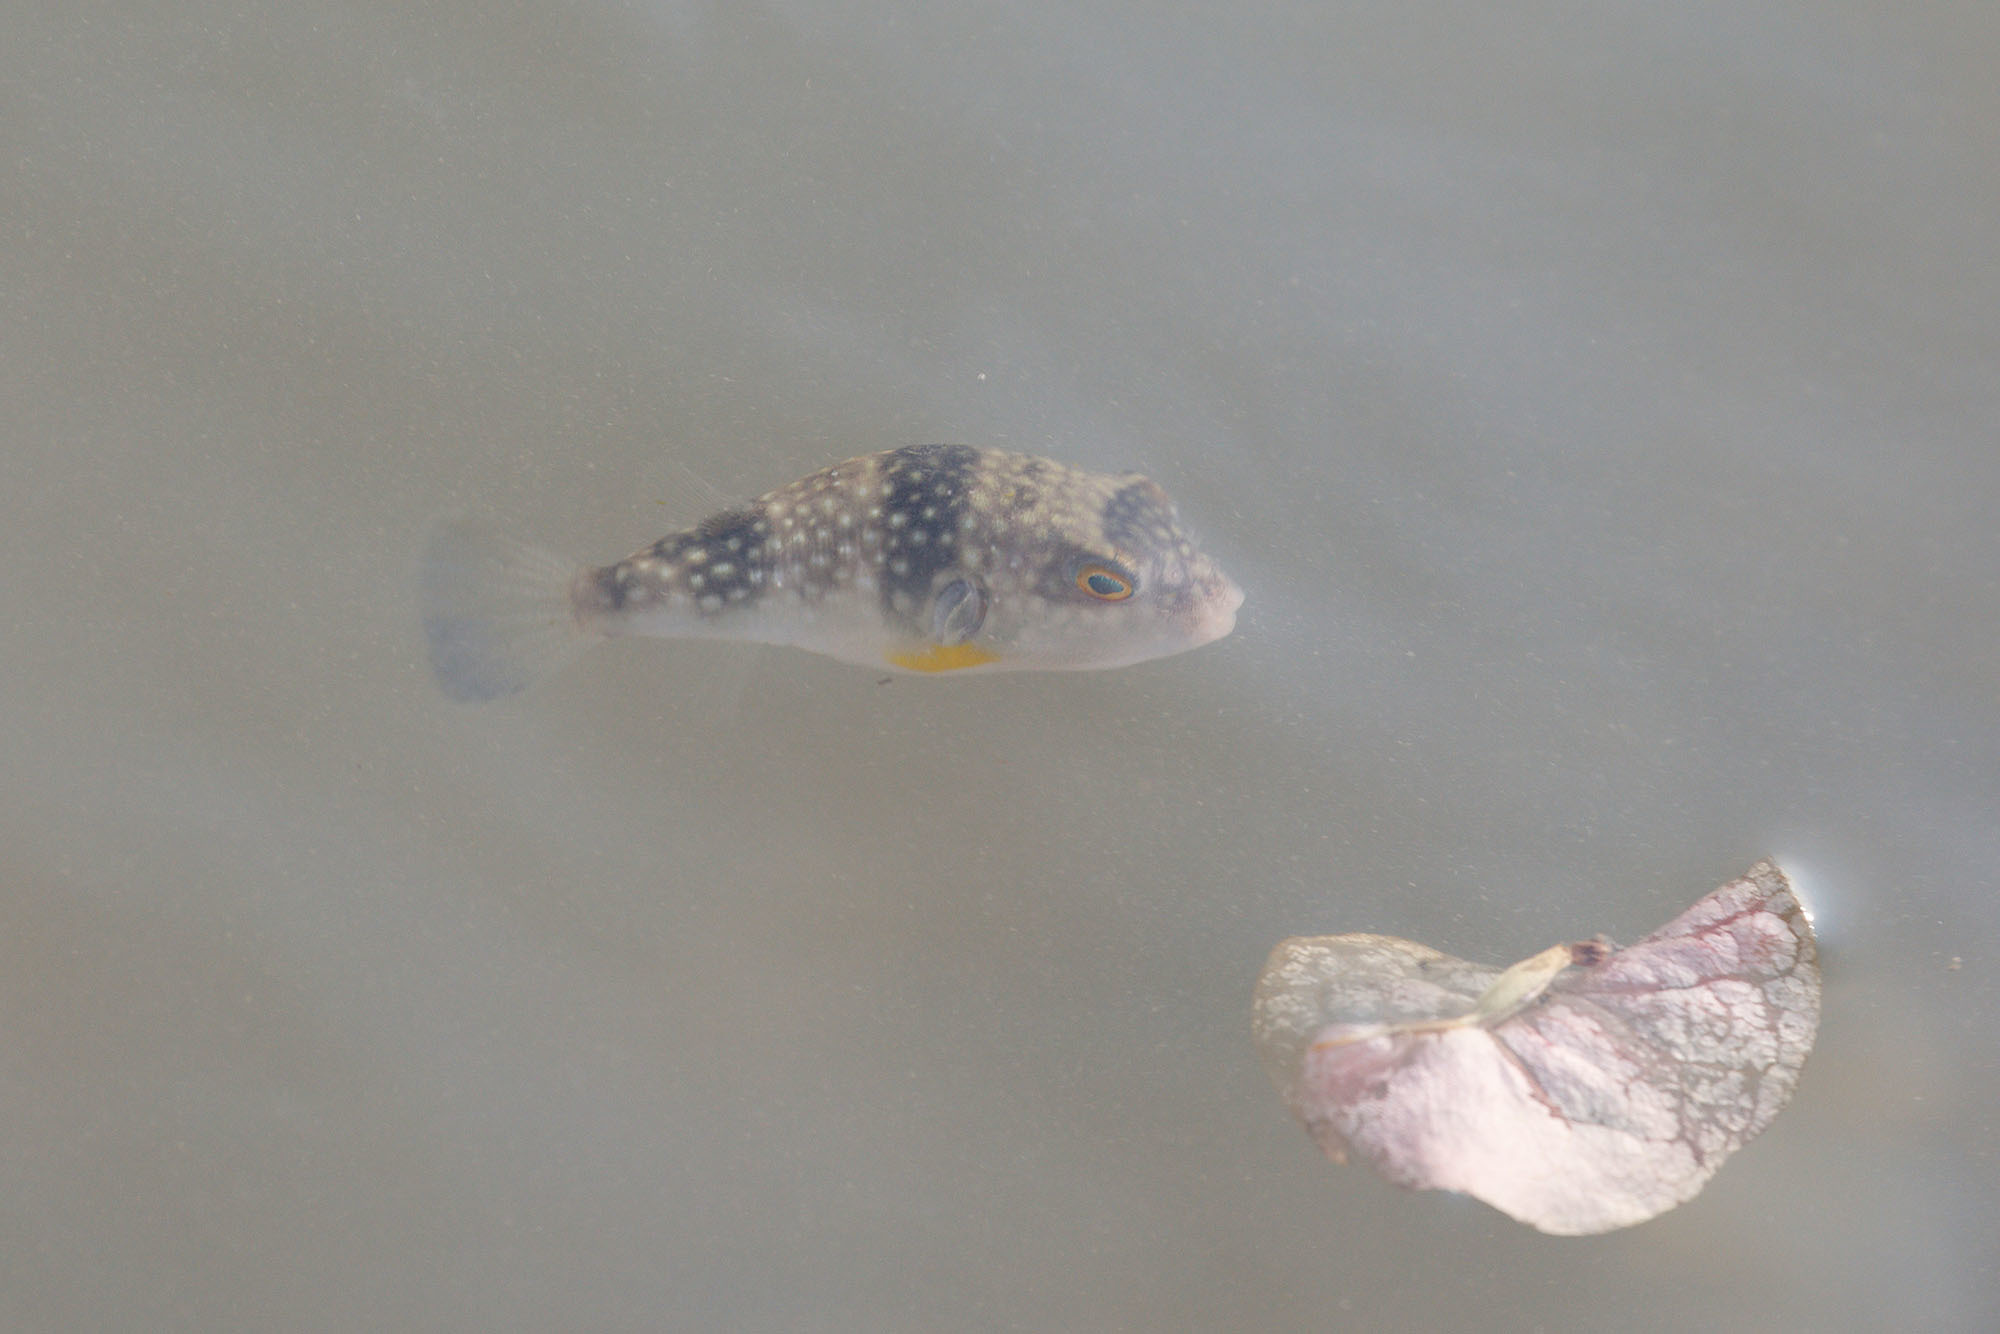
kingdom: Animalia
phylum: Chordata
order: Tetraodontiformes
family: Tetraodontidae
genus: Chelonodontops
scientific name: Chelonodontops patoca
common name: Gangetic blow fish
